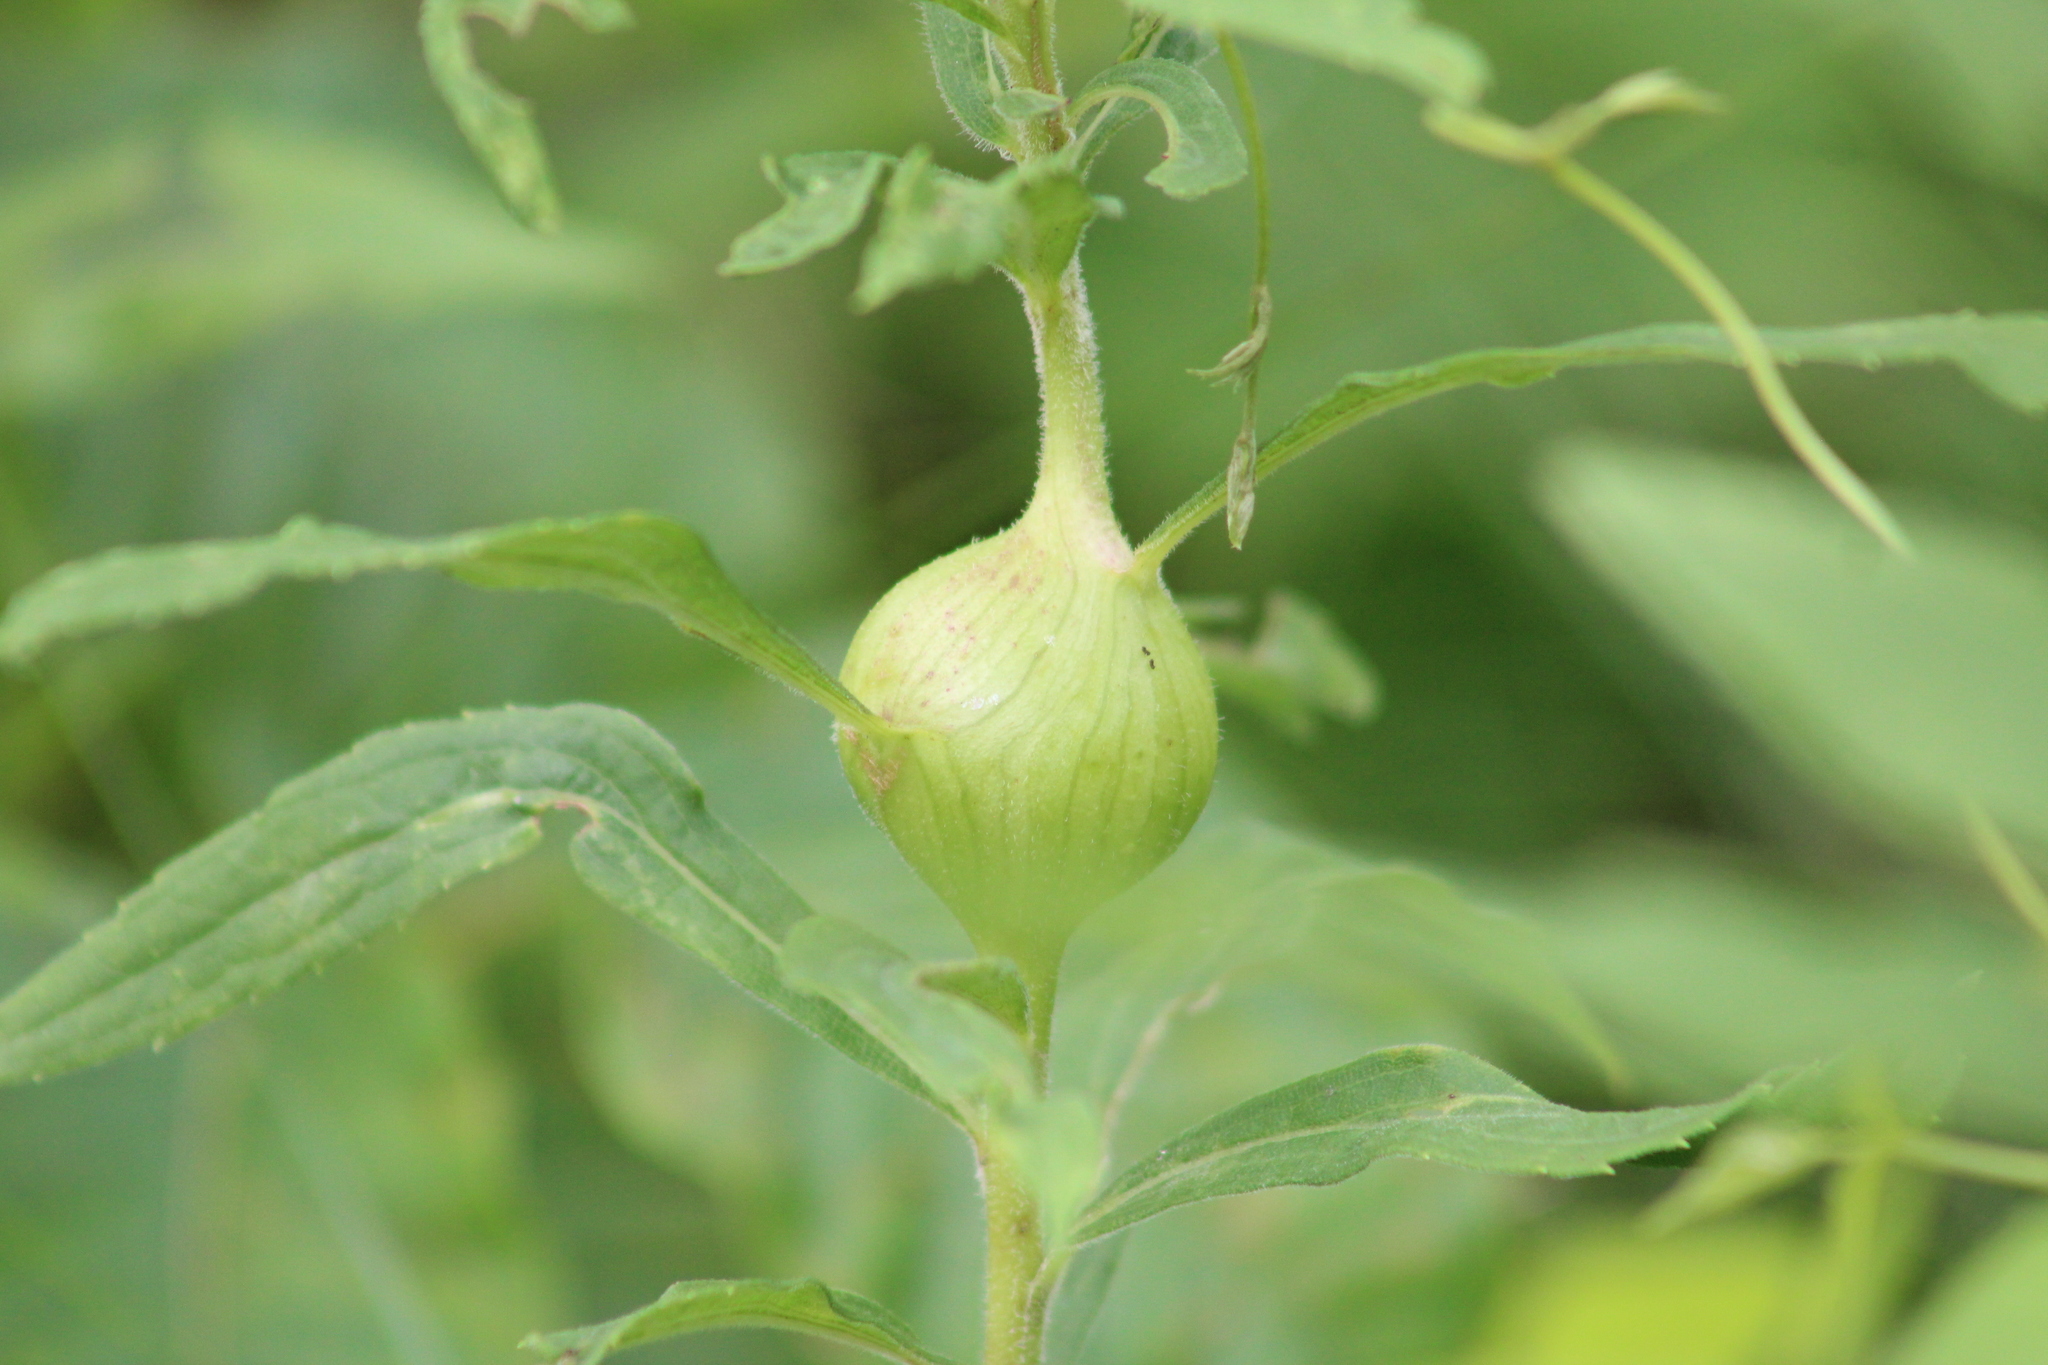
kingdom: Animalia
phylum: Arthropoda
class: Insecta
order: Diptera
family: Tephritidae
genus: Eurosta
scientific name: Eurosta solidaginis
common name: Goldenrod gall fly
